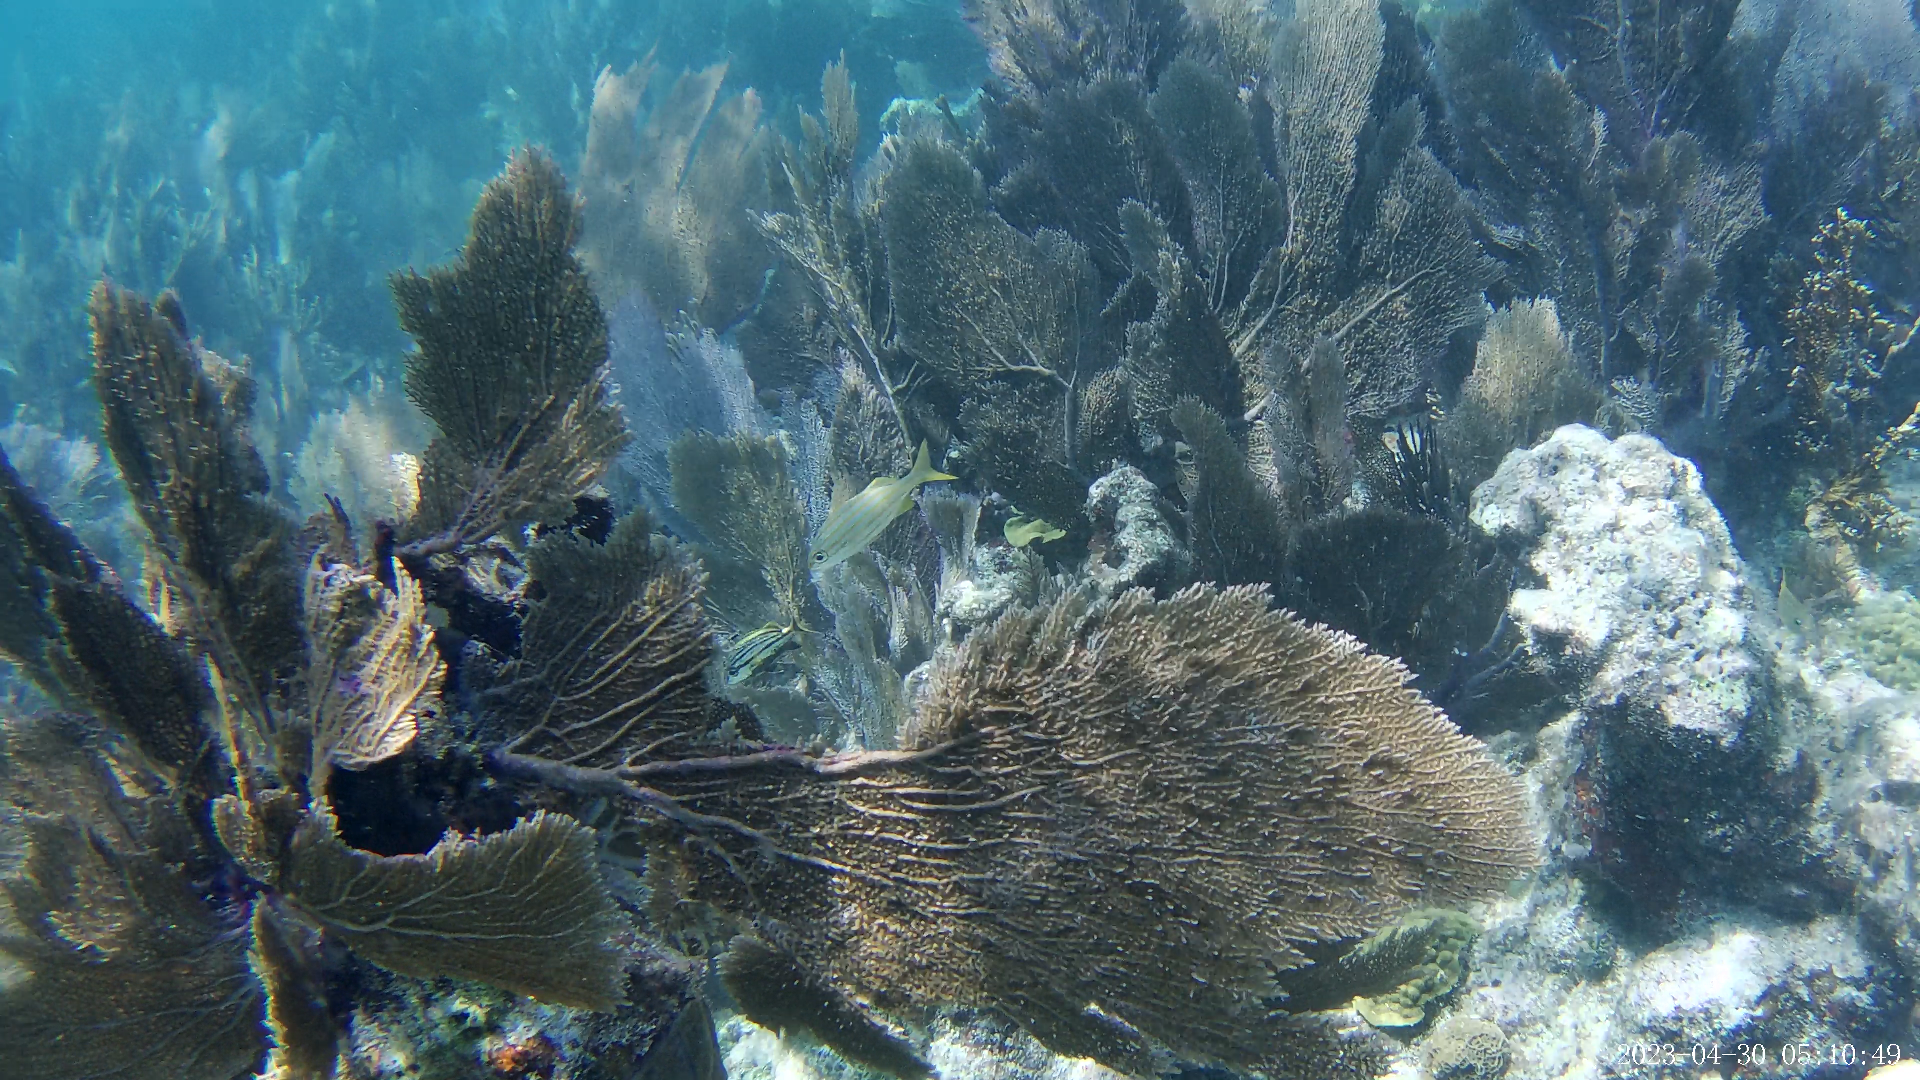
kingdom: Animalia
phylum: Chordata
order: Perciformes
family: Haemulidae
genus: Haemulon
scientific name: Haemulon chrysargyreum
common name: Smallmouth grunt
